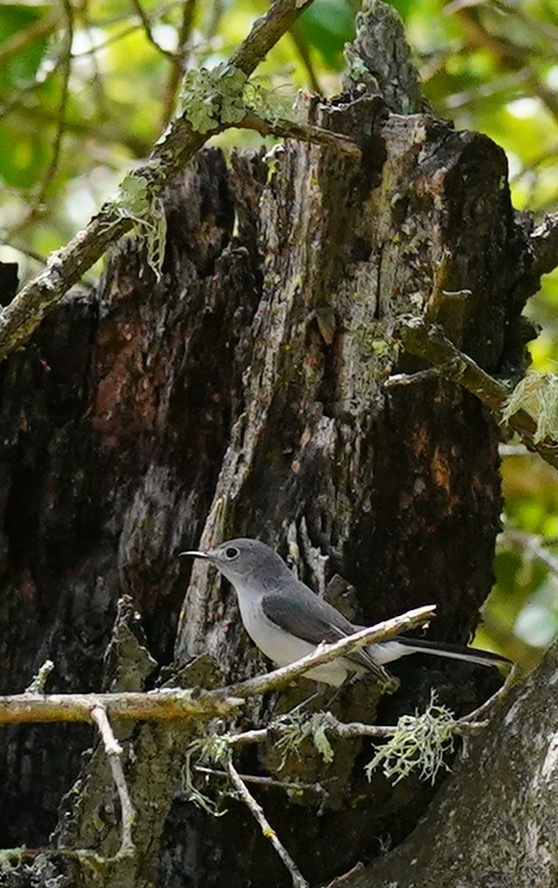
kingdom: Animalia
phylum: Chordata
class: Aves
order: Passeriformes
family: Polioptilidae
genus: Polioptila
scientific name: Polioptila caerulea
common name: Blue-gray gnatcatcher
